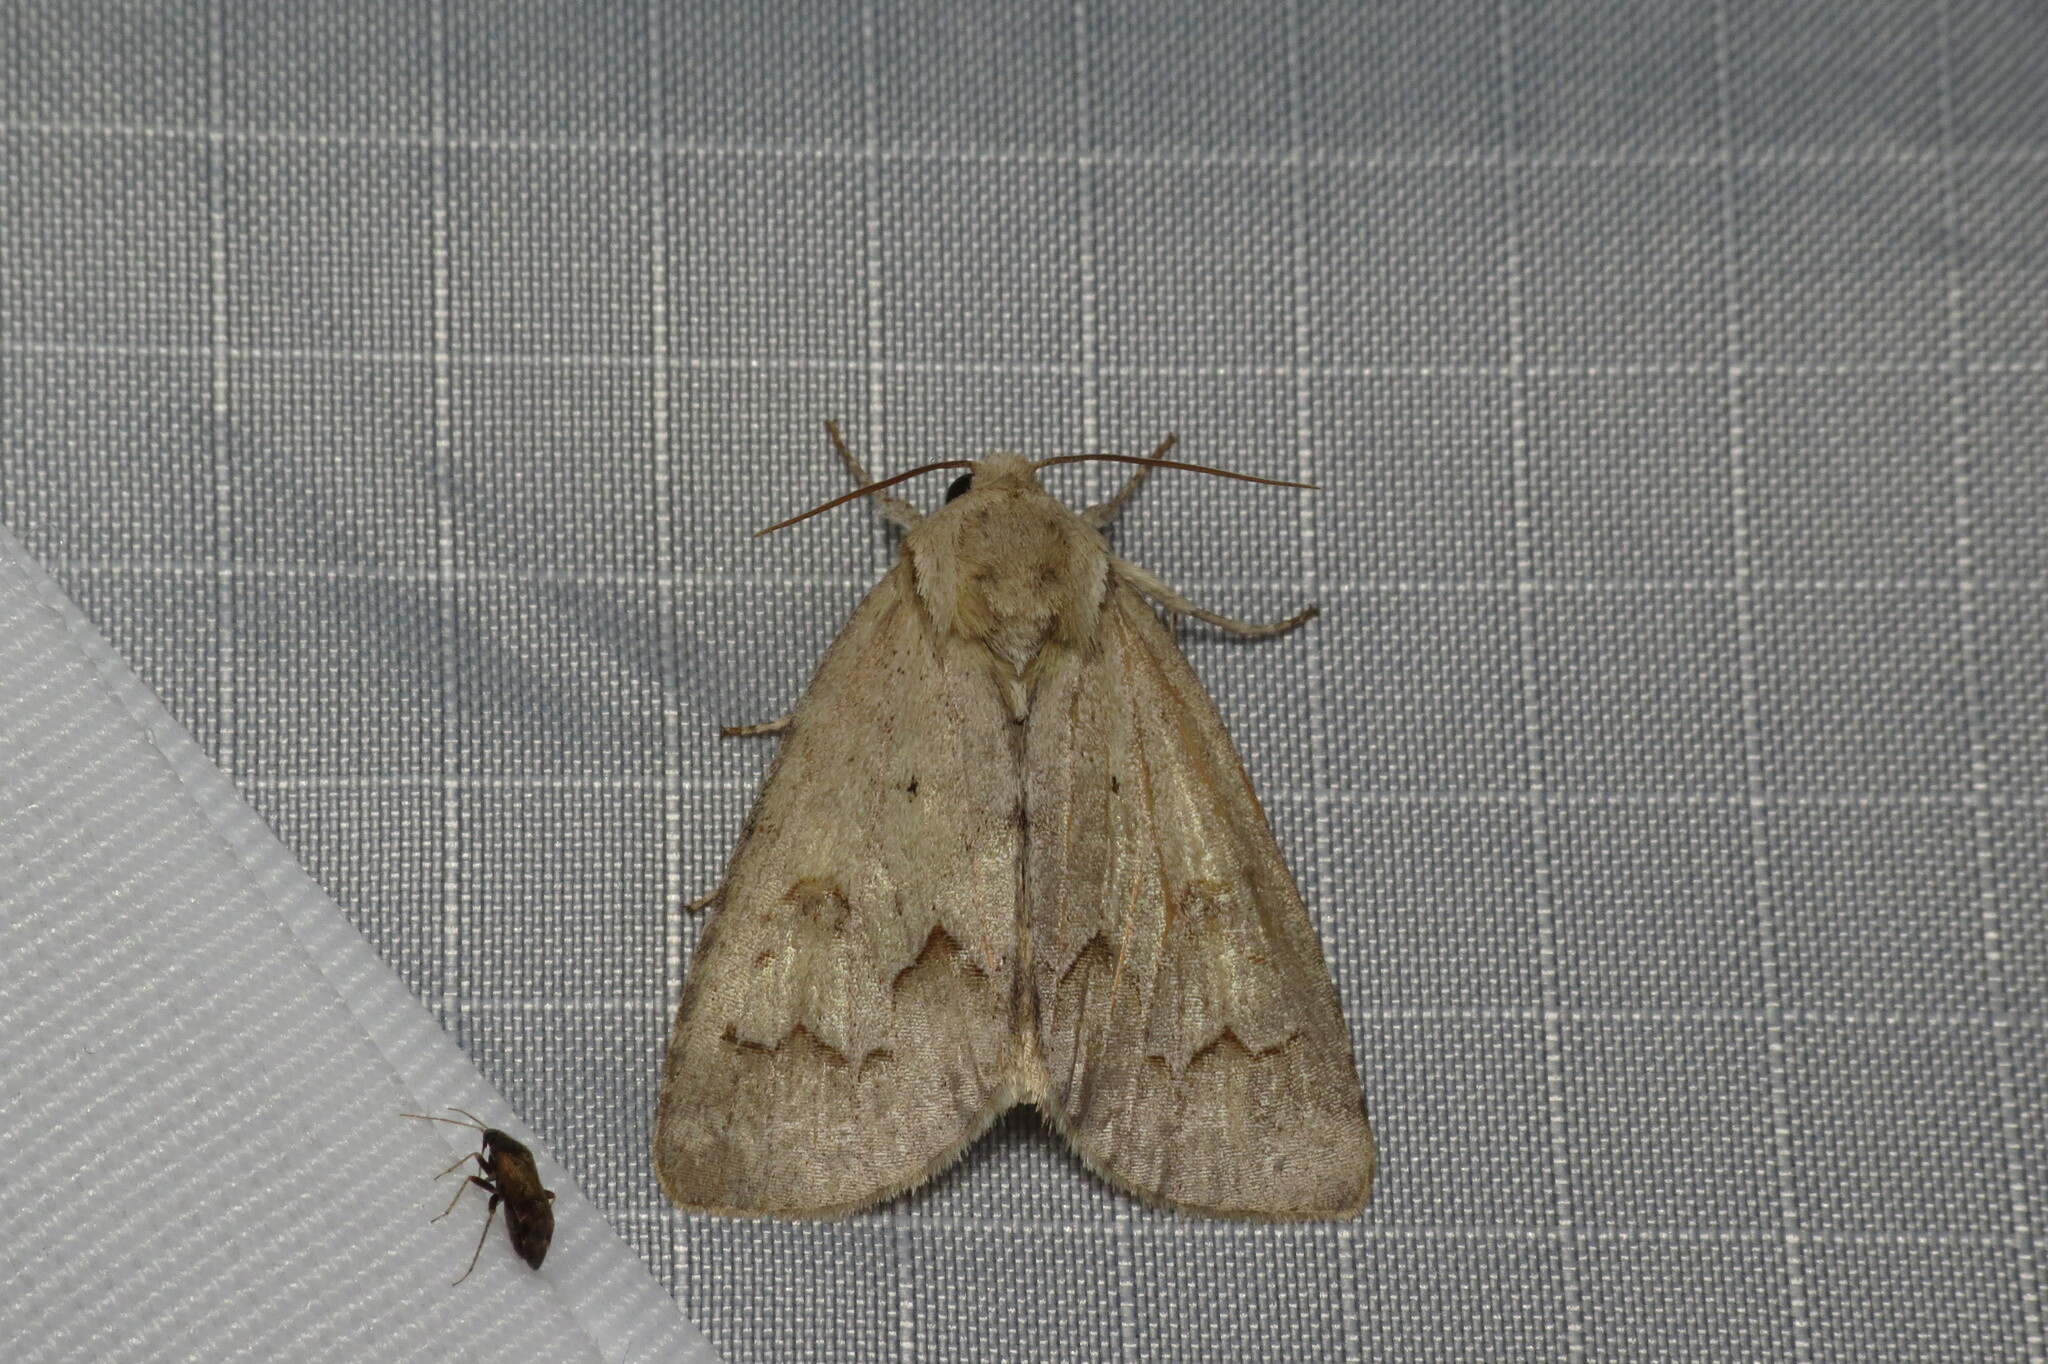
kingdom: Animalia
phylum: Arthropoda
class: Insecta
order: Lepidoptera
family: Noctuidae
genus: Acronicta
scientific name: Acronicta betulae
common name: Birch dagger moth
